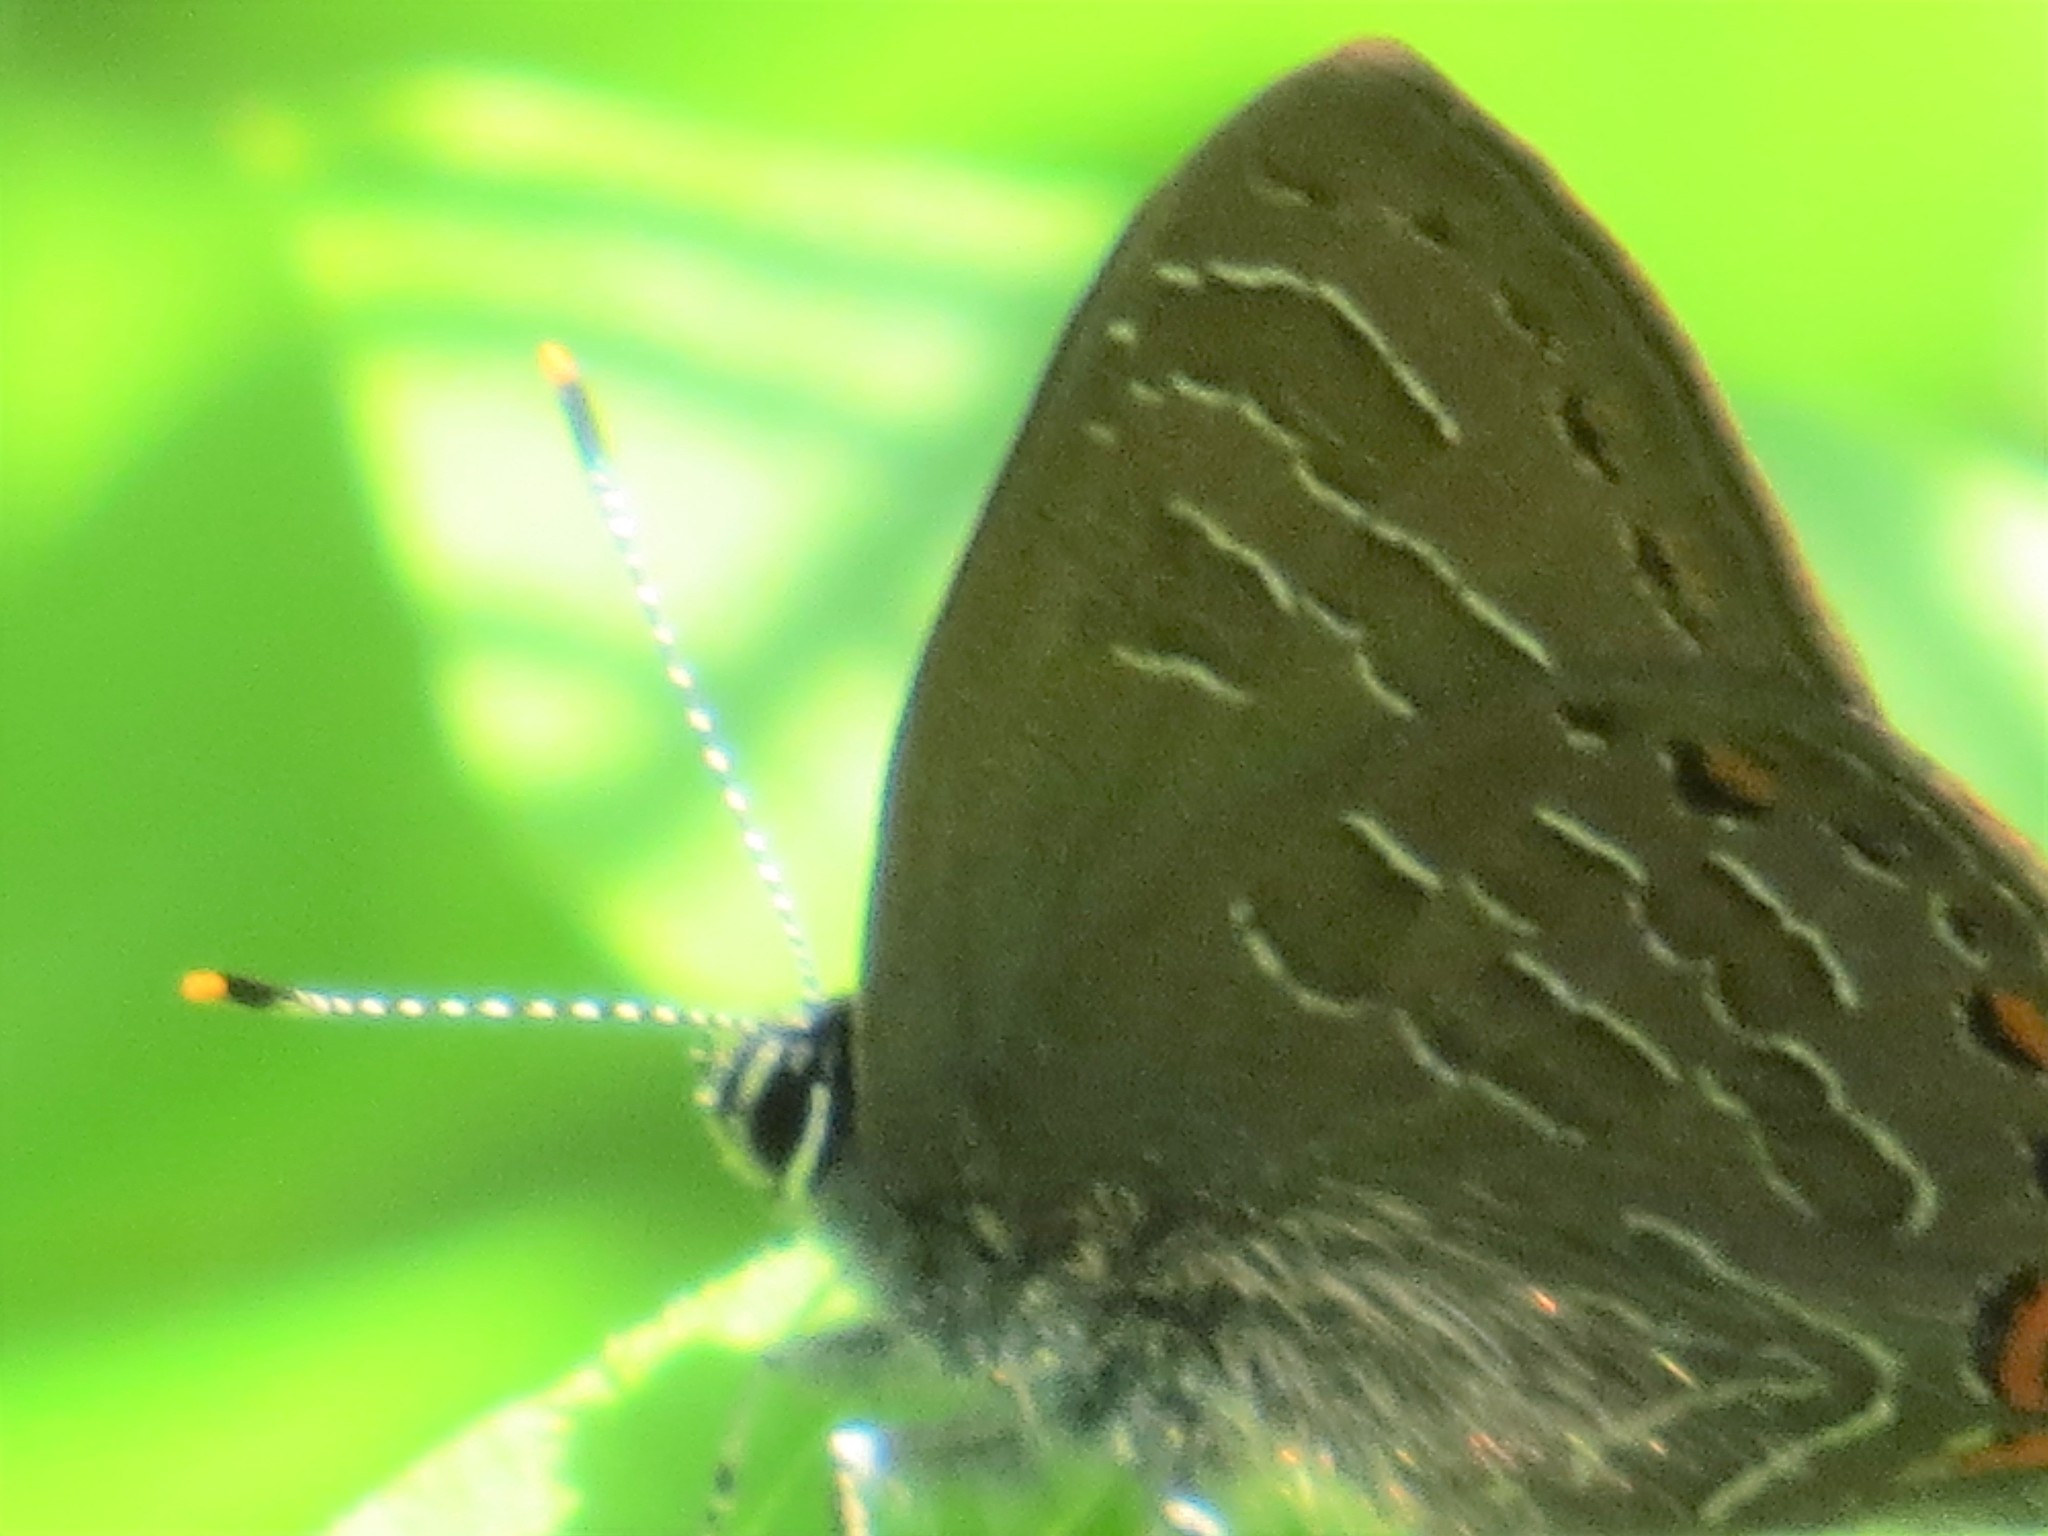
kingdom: Animalia
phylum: Arthropoda
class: Insecta
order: Lepidoptera
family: Lycaenidae
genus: Satyrium
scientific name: Satyrium liparops
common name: Striped hairstreak
